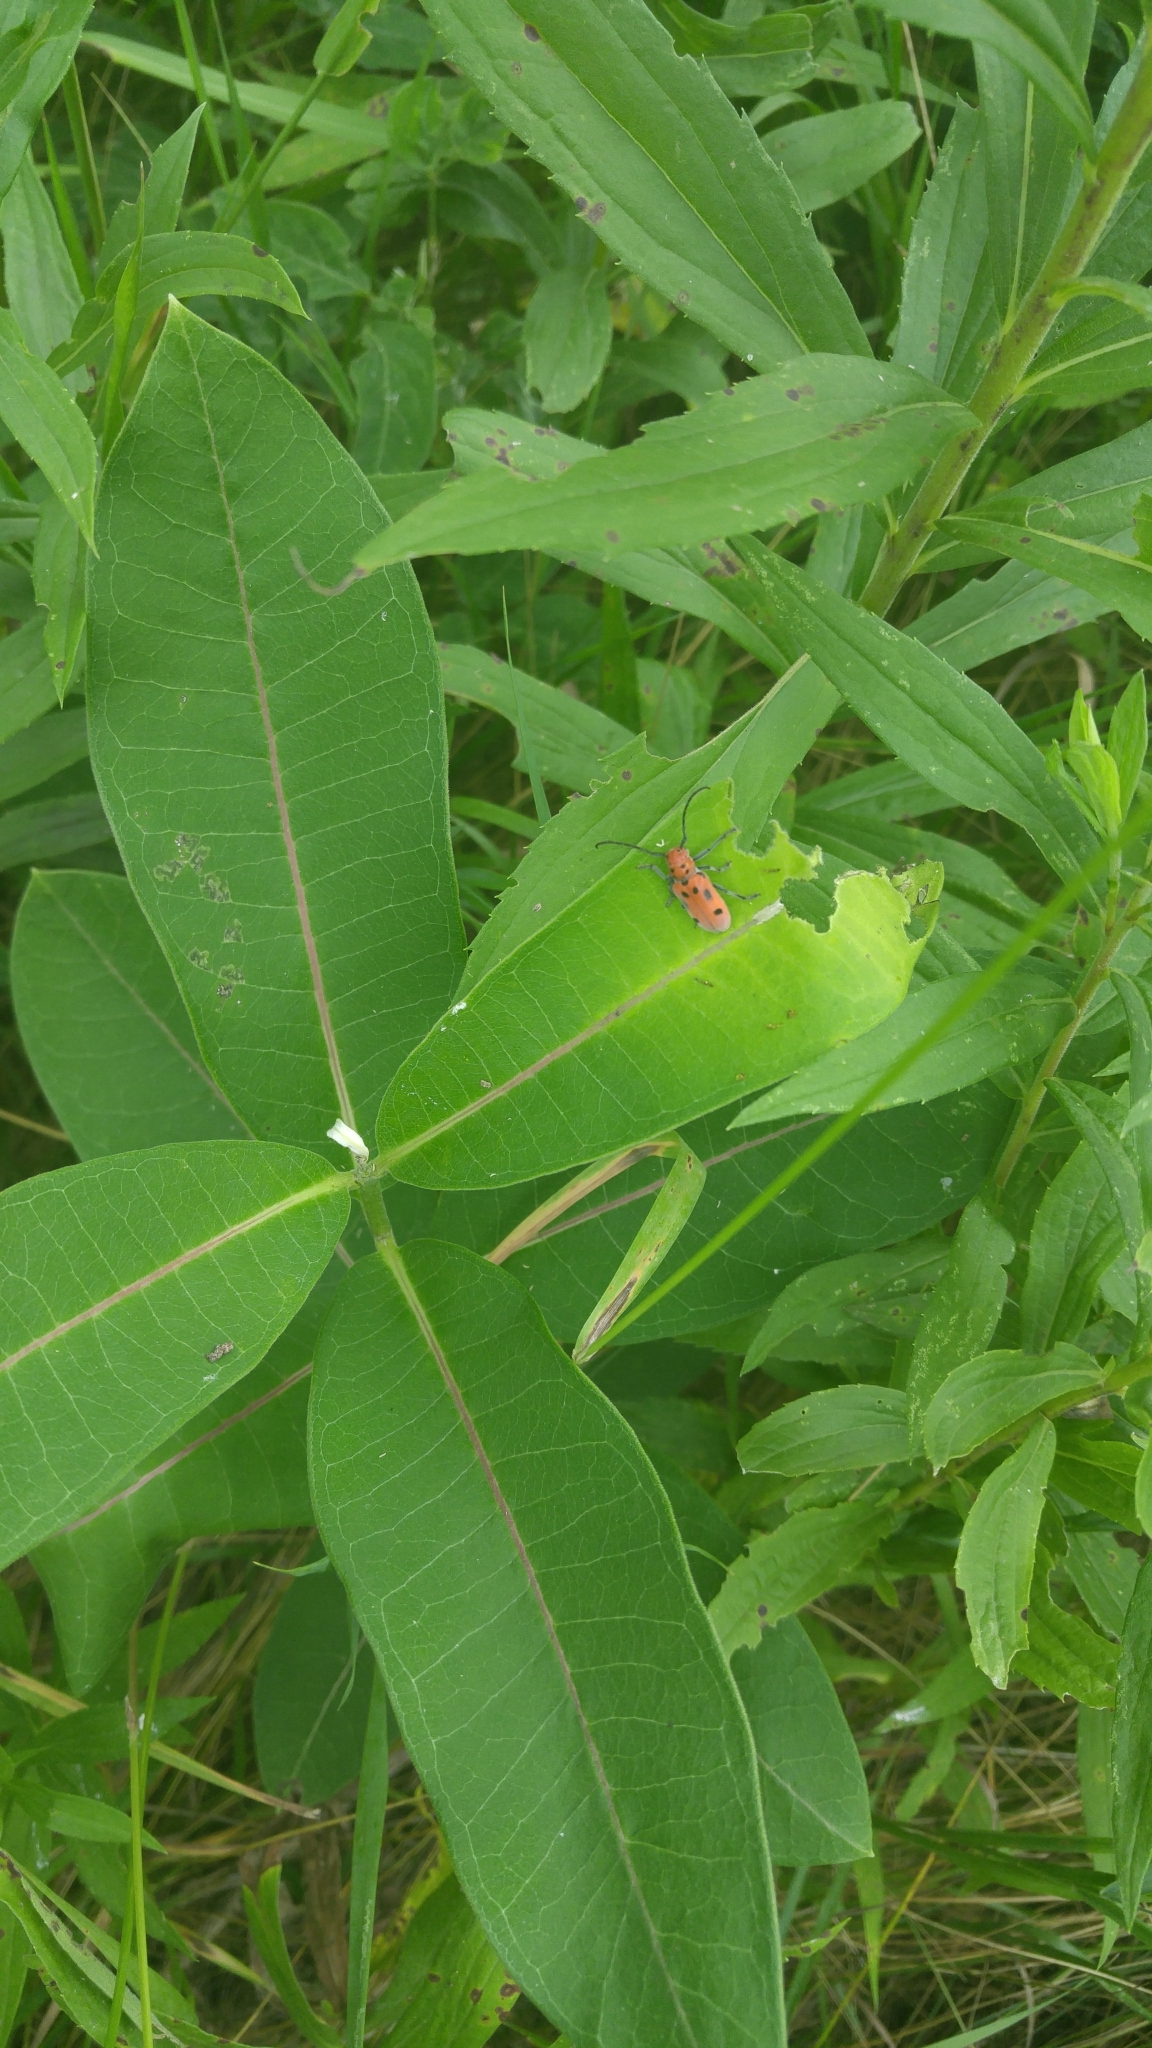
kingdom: Animalia
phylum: Arthropoda
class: Insecta
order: Coleoptera
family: Cerambycidae
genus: Tetraopes
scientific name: Tetraopes tetrophthalmus
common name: Red milkweed beetle
